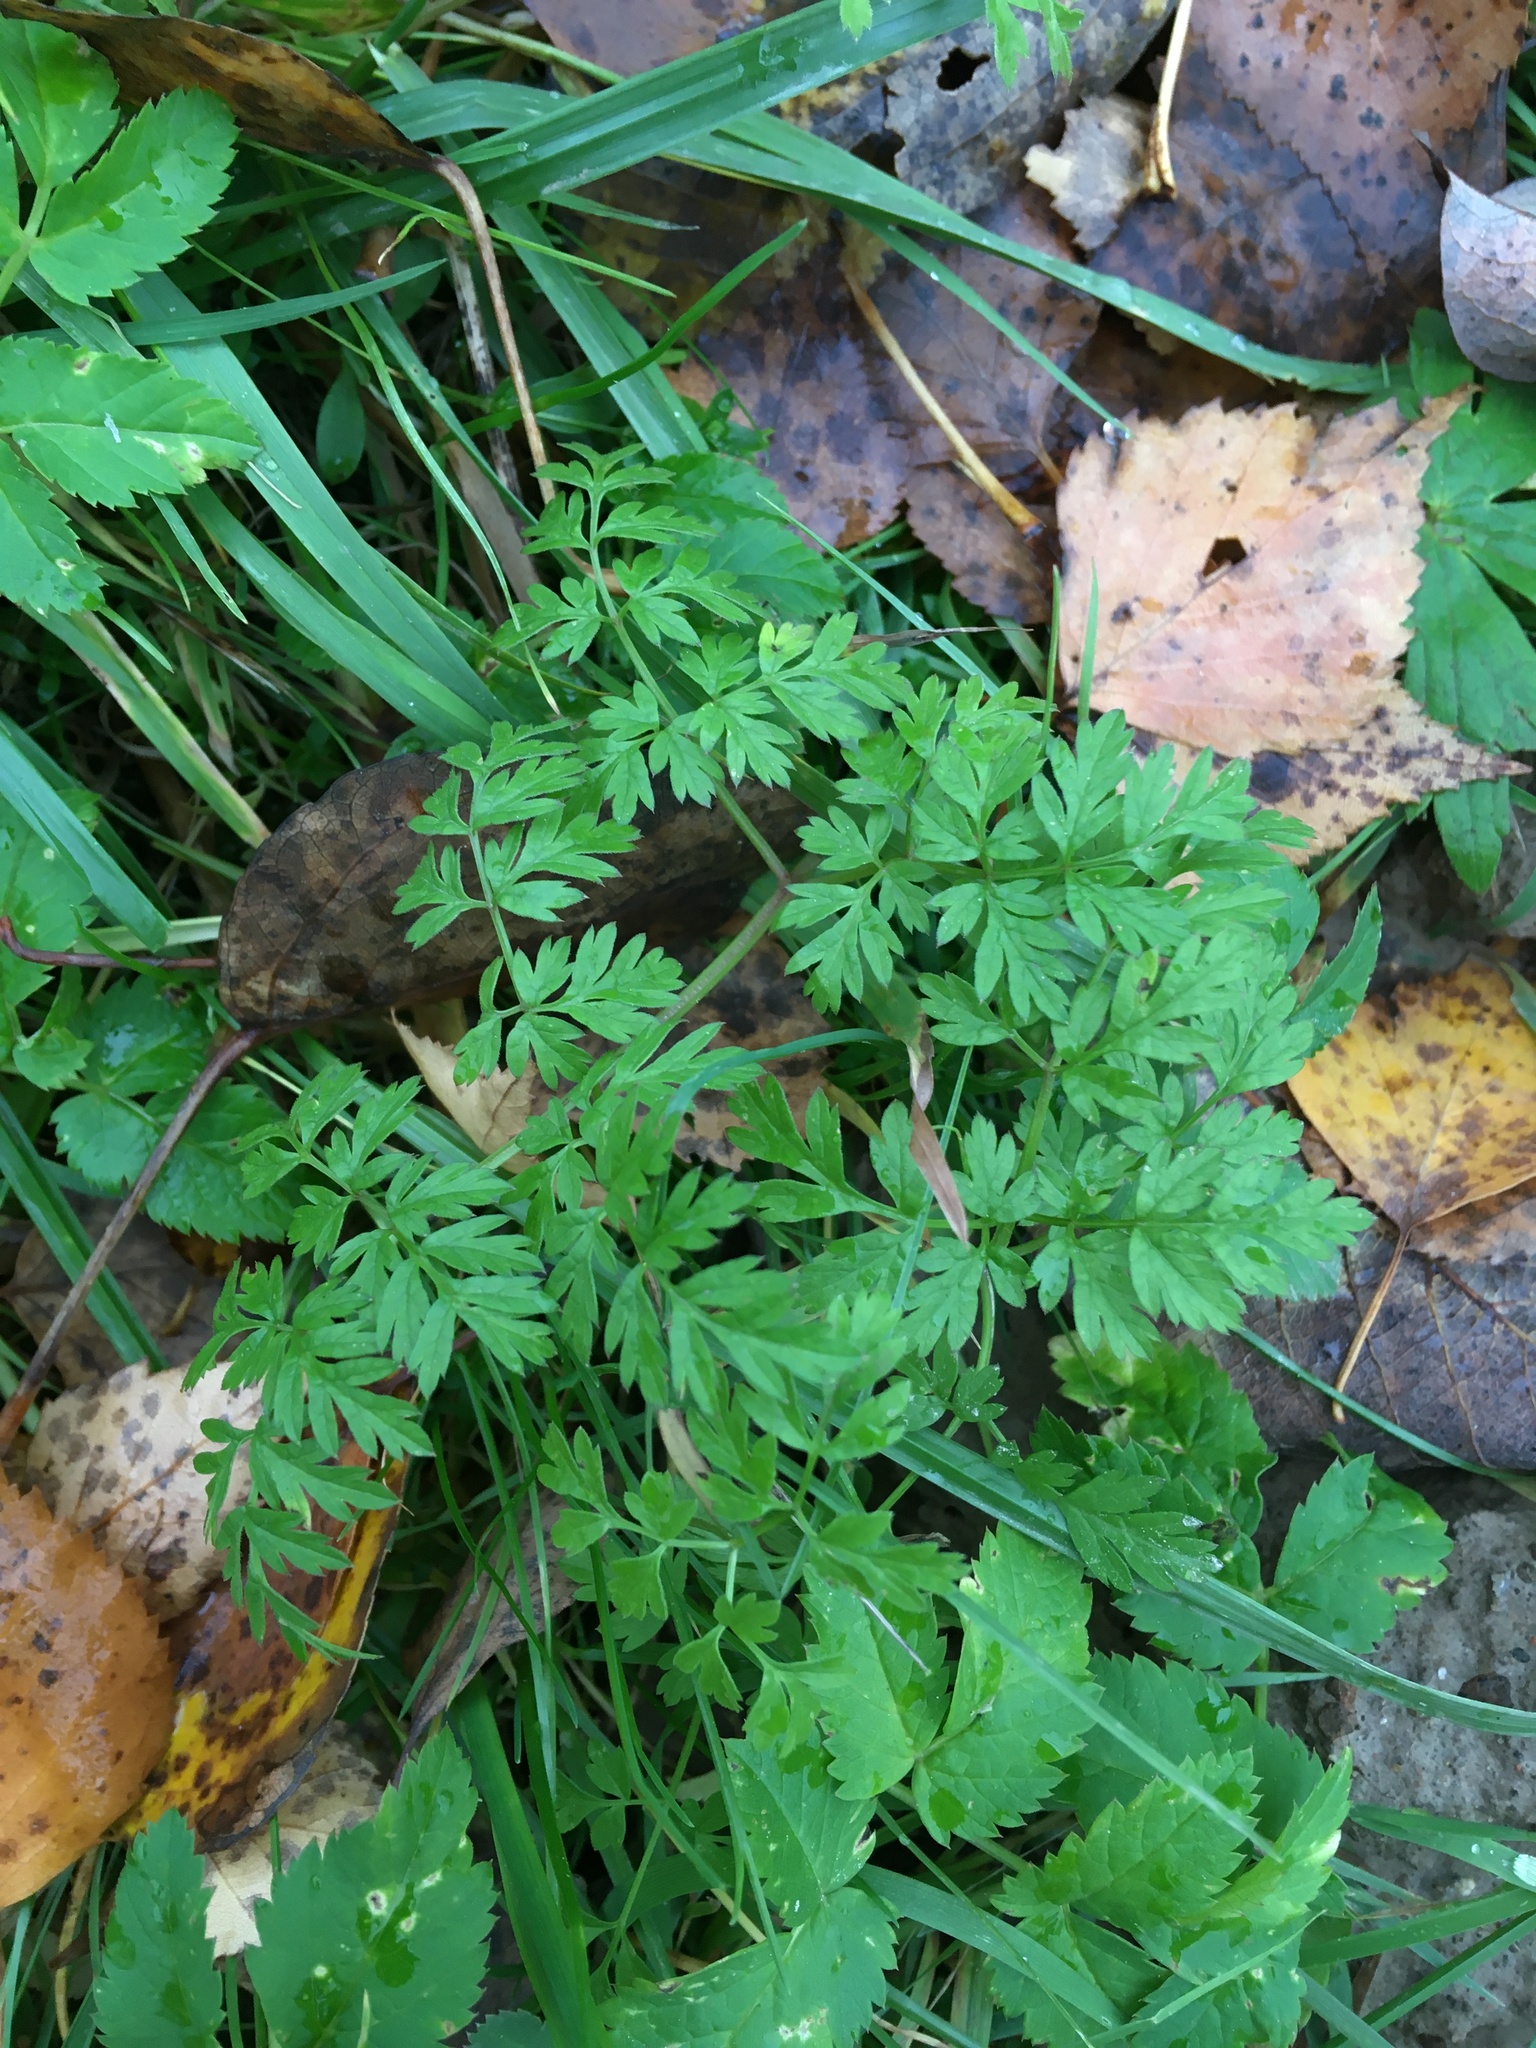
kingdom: Plantae
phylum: Tracheophyta
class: Magnoliopsida
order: Apiales
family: Apiaceae
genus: Anthriscus
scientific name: Anthriscus sylvestris
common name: Cow parsley
